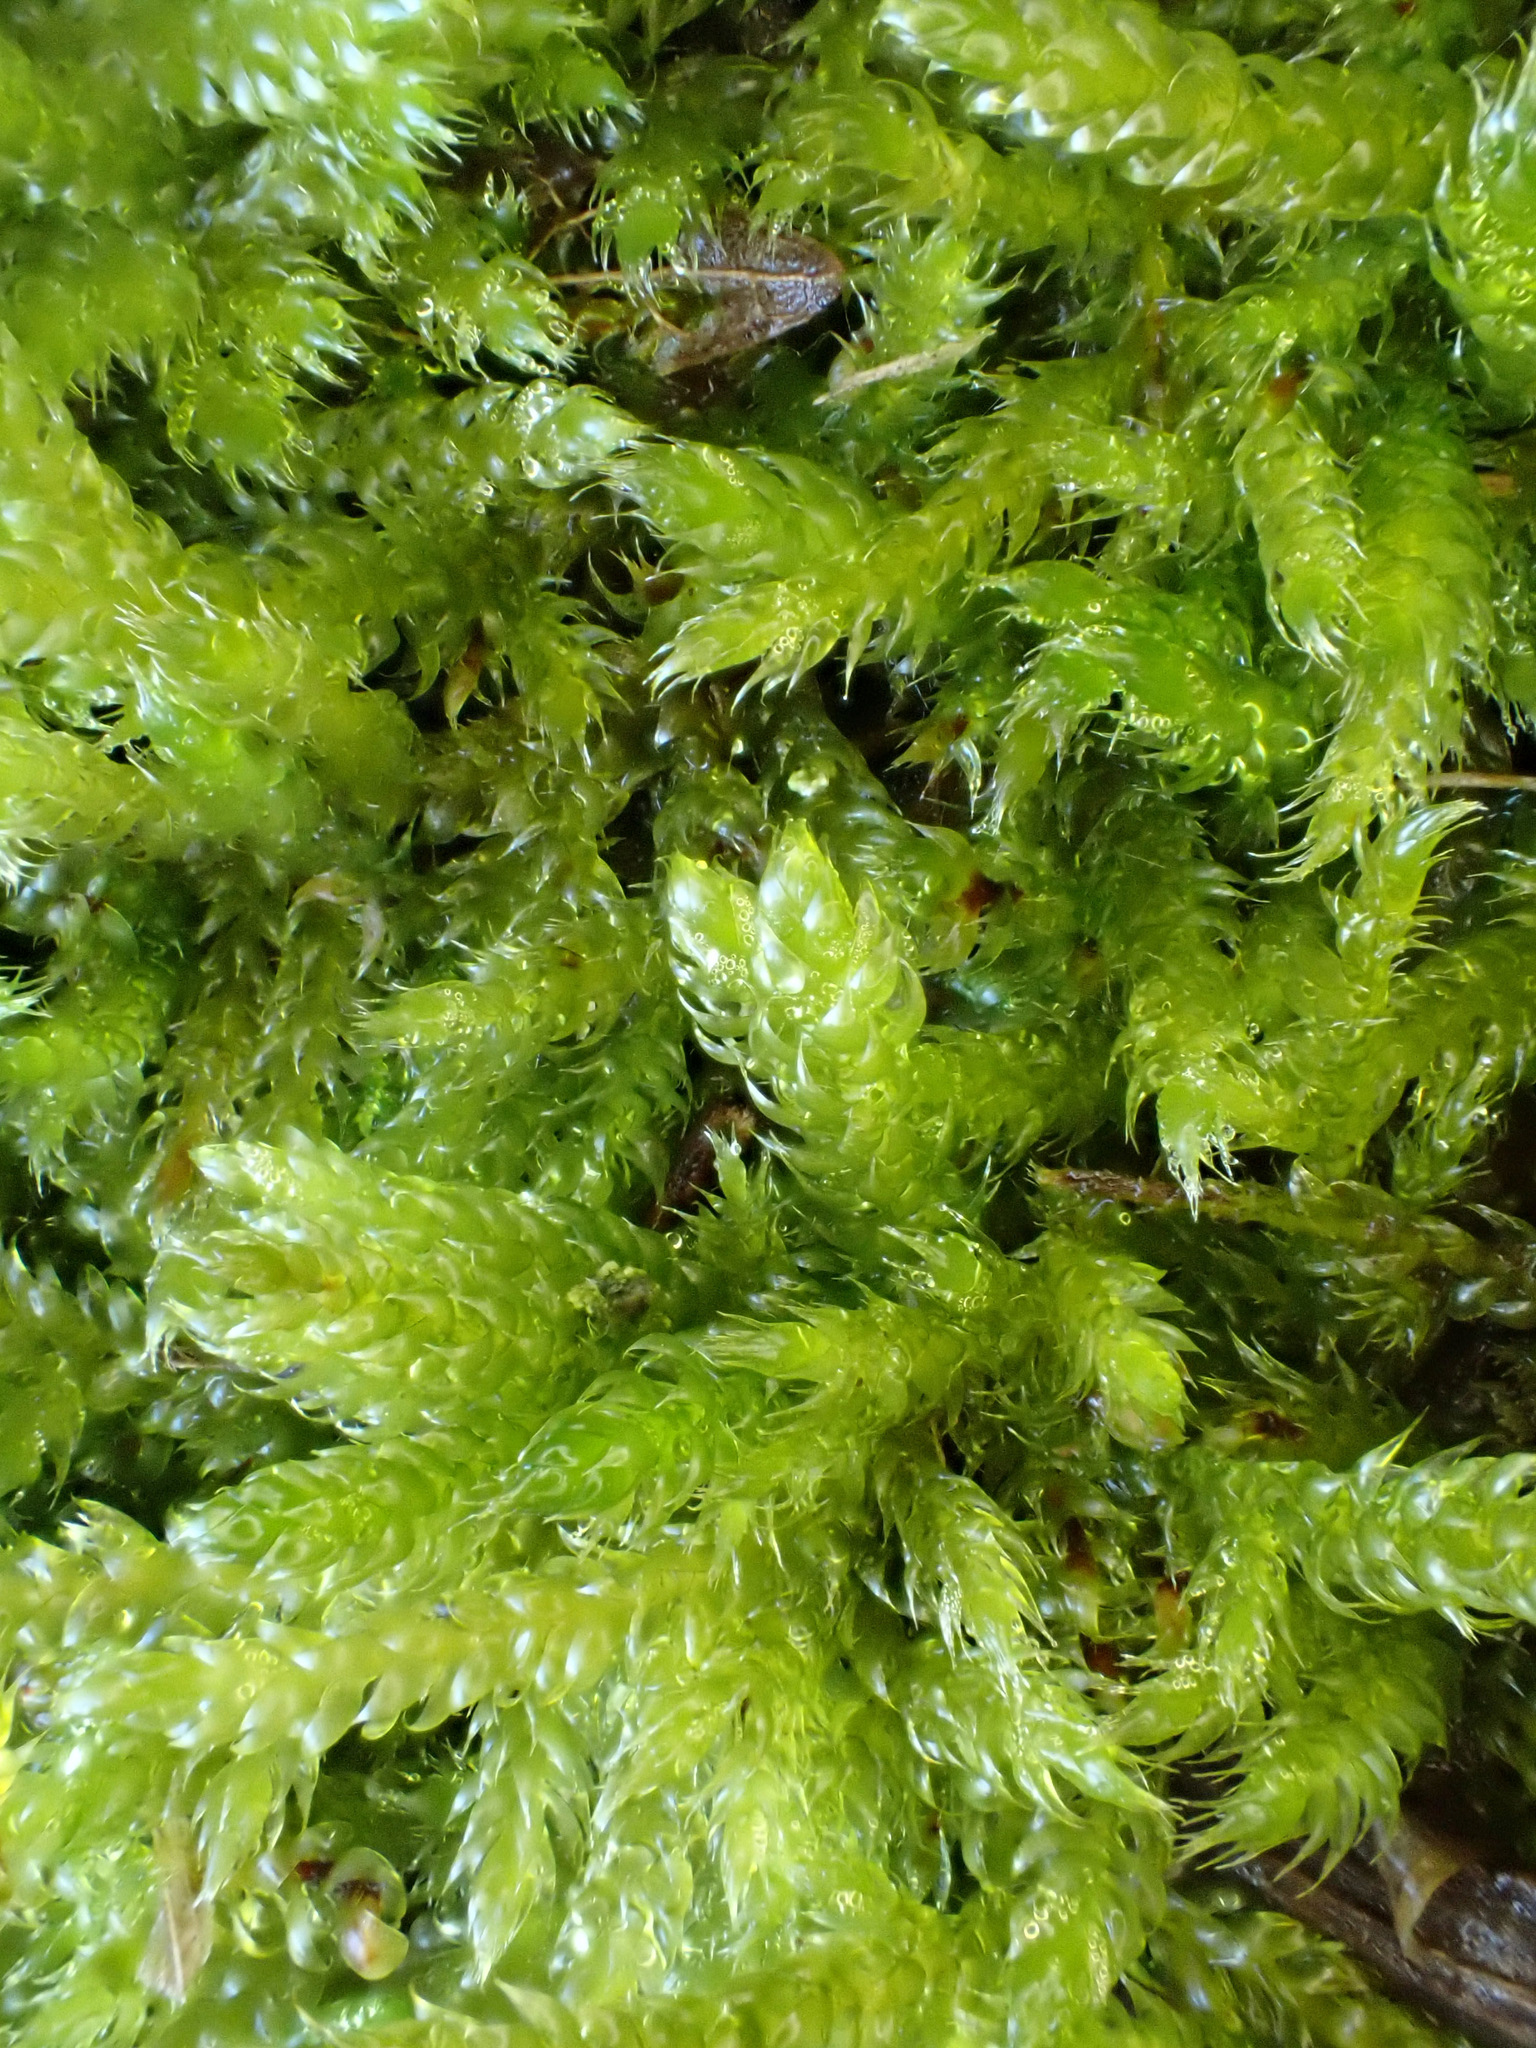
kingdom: Plantae
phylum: Bryophyta
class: Bryopsida
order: Hypnales
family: Hypnaceae
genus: Hypnum
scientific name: Hypnum cupressiforme
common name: Cypress-leaved plait-moss
